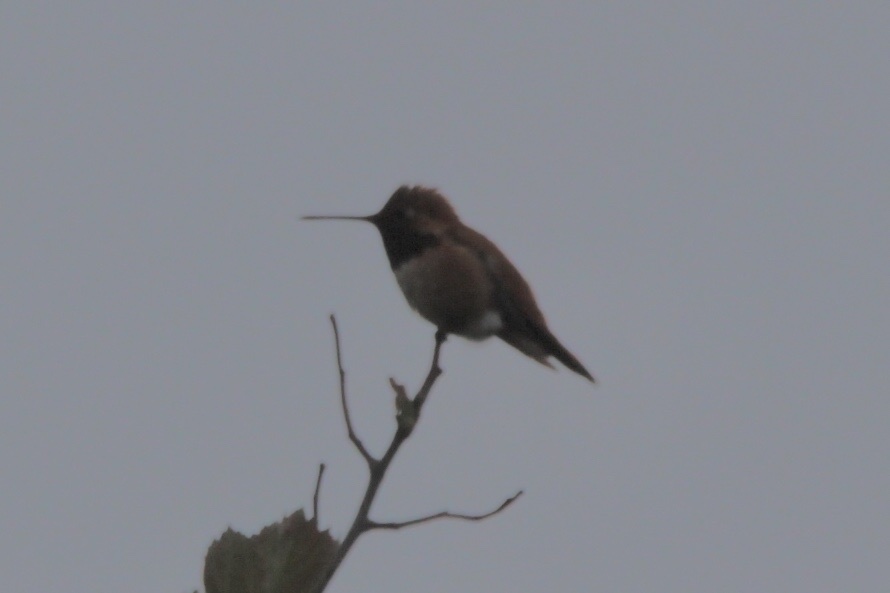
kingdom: Animalia
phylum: Chordata
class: Aves
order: Apodiformes
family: Trochilidae
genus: Selasphorus
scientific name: Selasphorus rufus
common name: Rufous hummingbird
